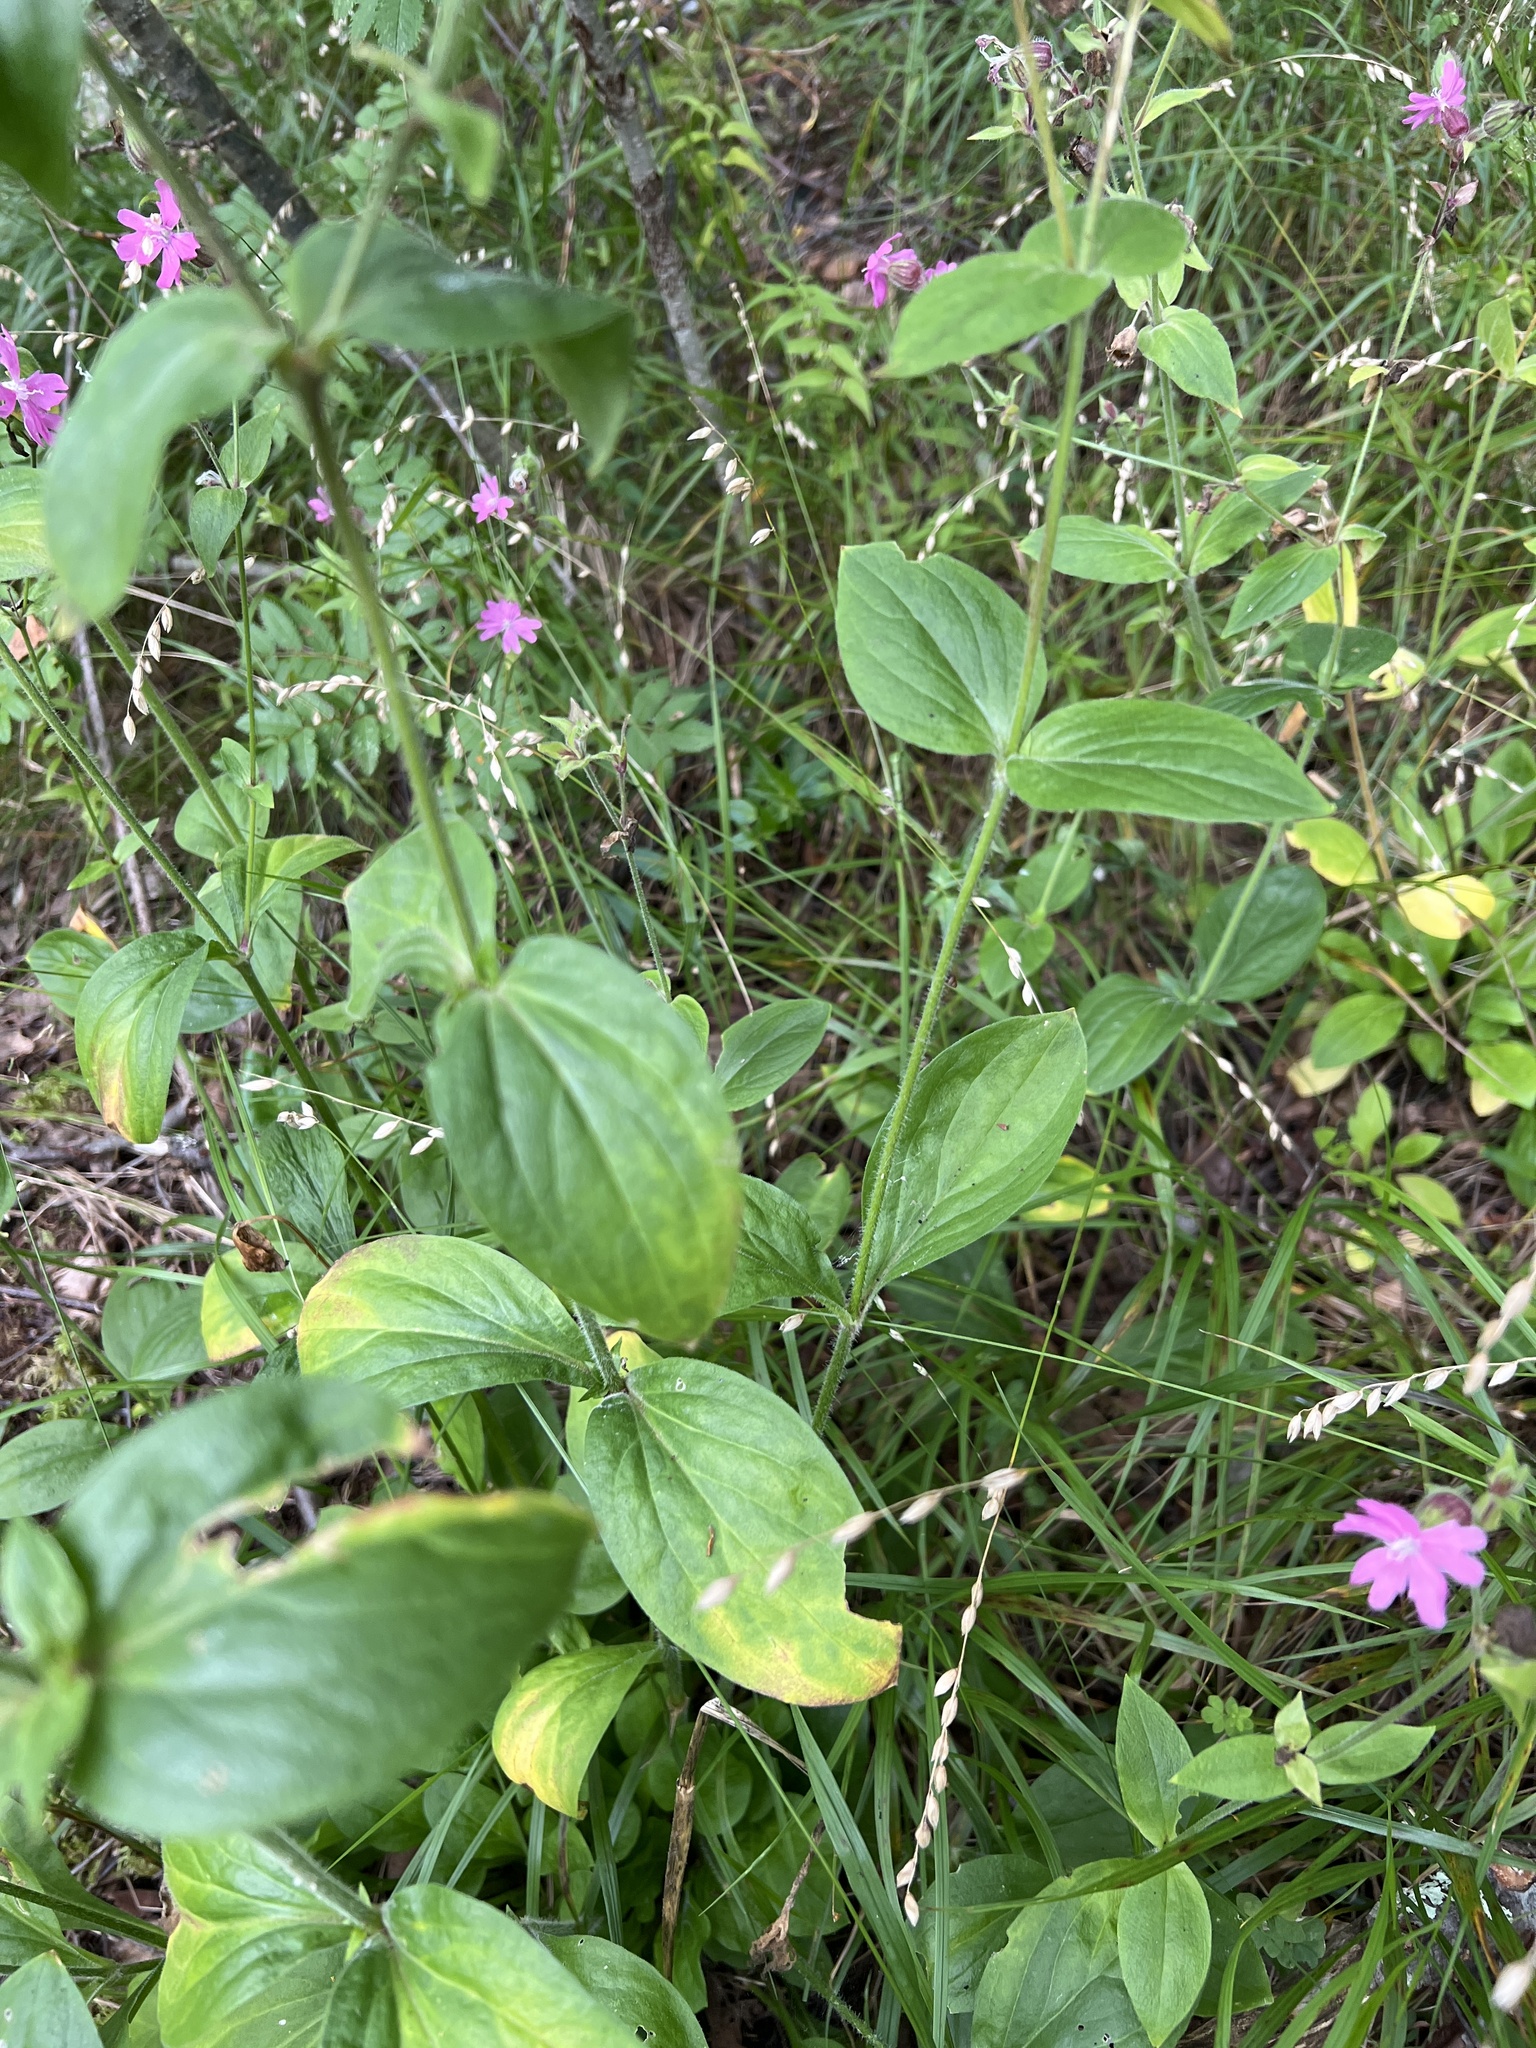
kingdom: Plantae
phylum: Tracheophyta
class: Magnoliopsida
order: Caryophyllales
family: Caryophyllaceae
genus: Silene
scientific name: Silene dioica
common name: Red campion
